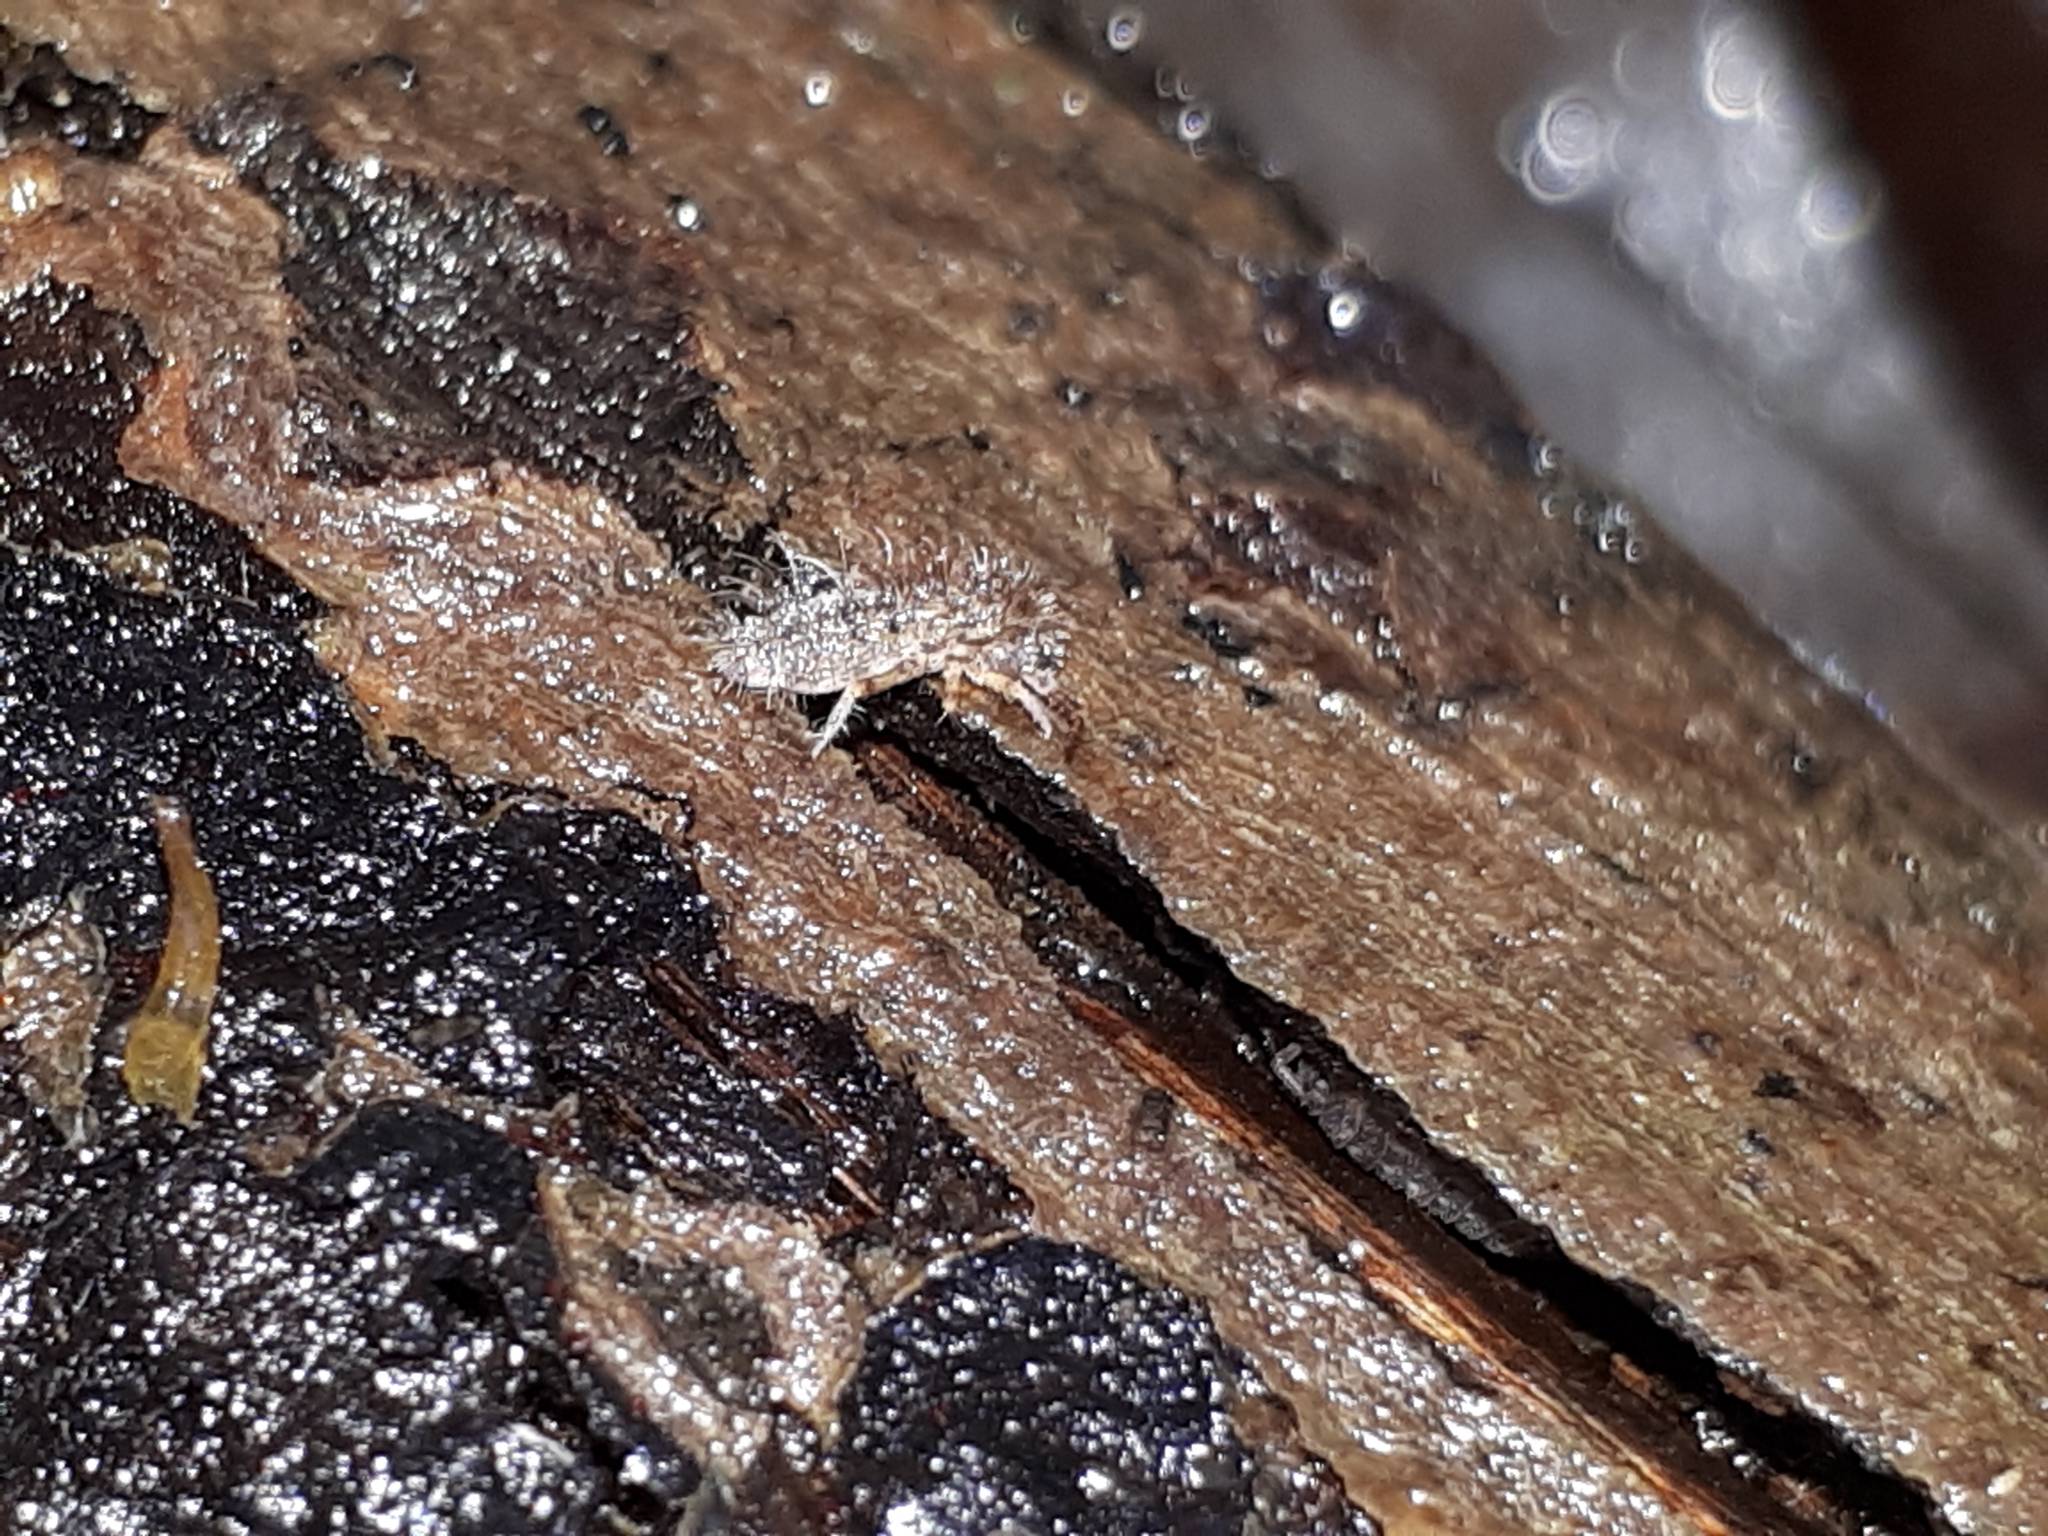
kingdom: Animalia
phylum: Arthropoda
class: Collembola
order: Entomobryomorpha
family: Orchesellidae
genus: Orchesella
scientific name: Orchesella villosa
